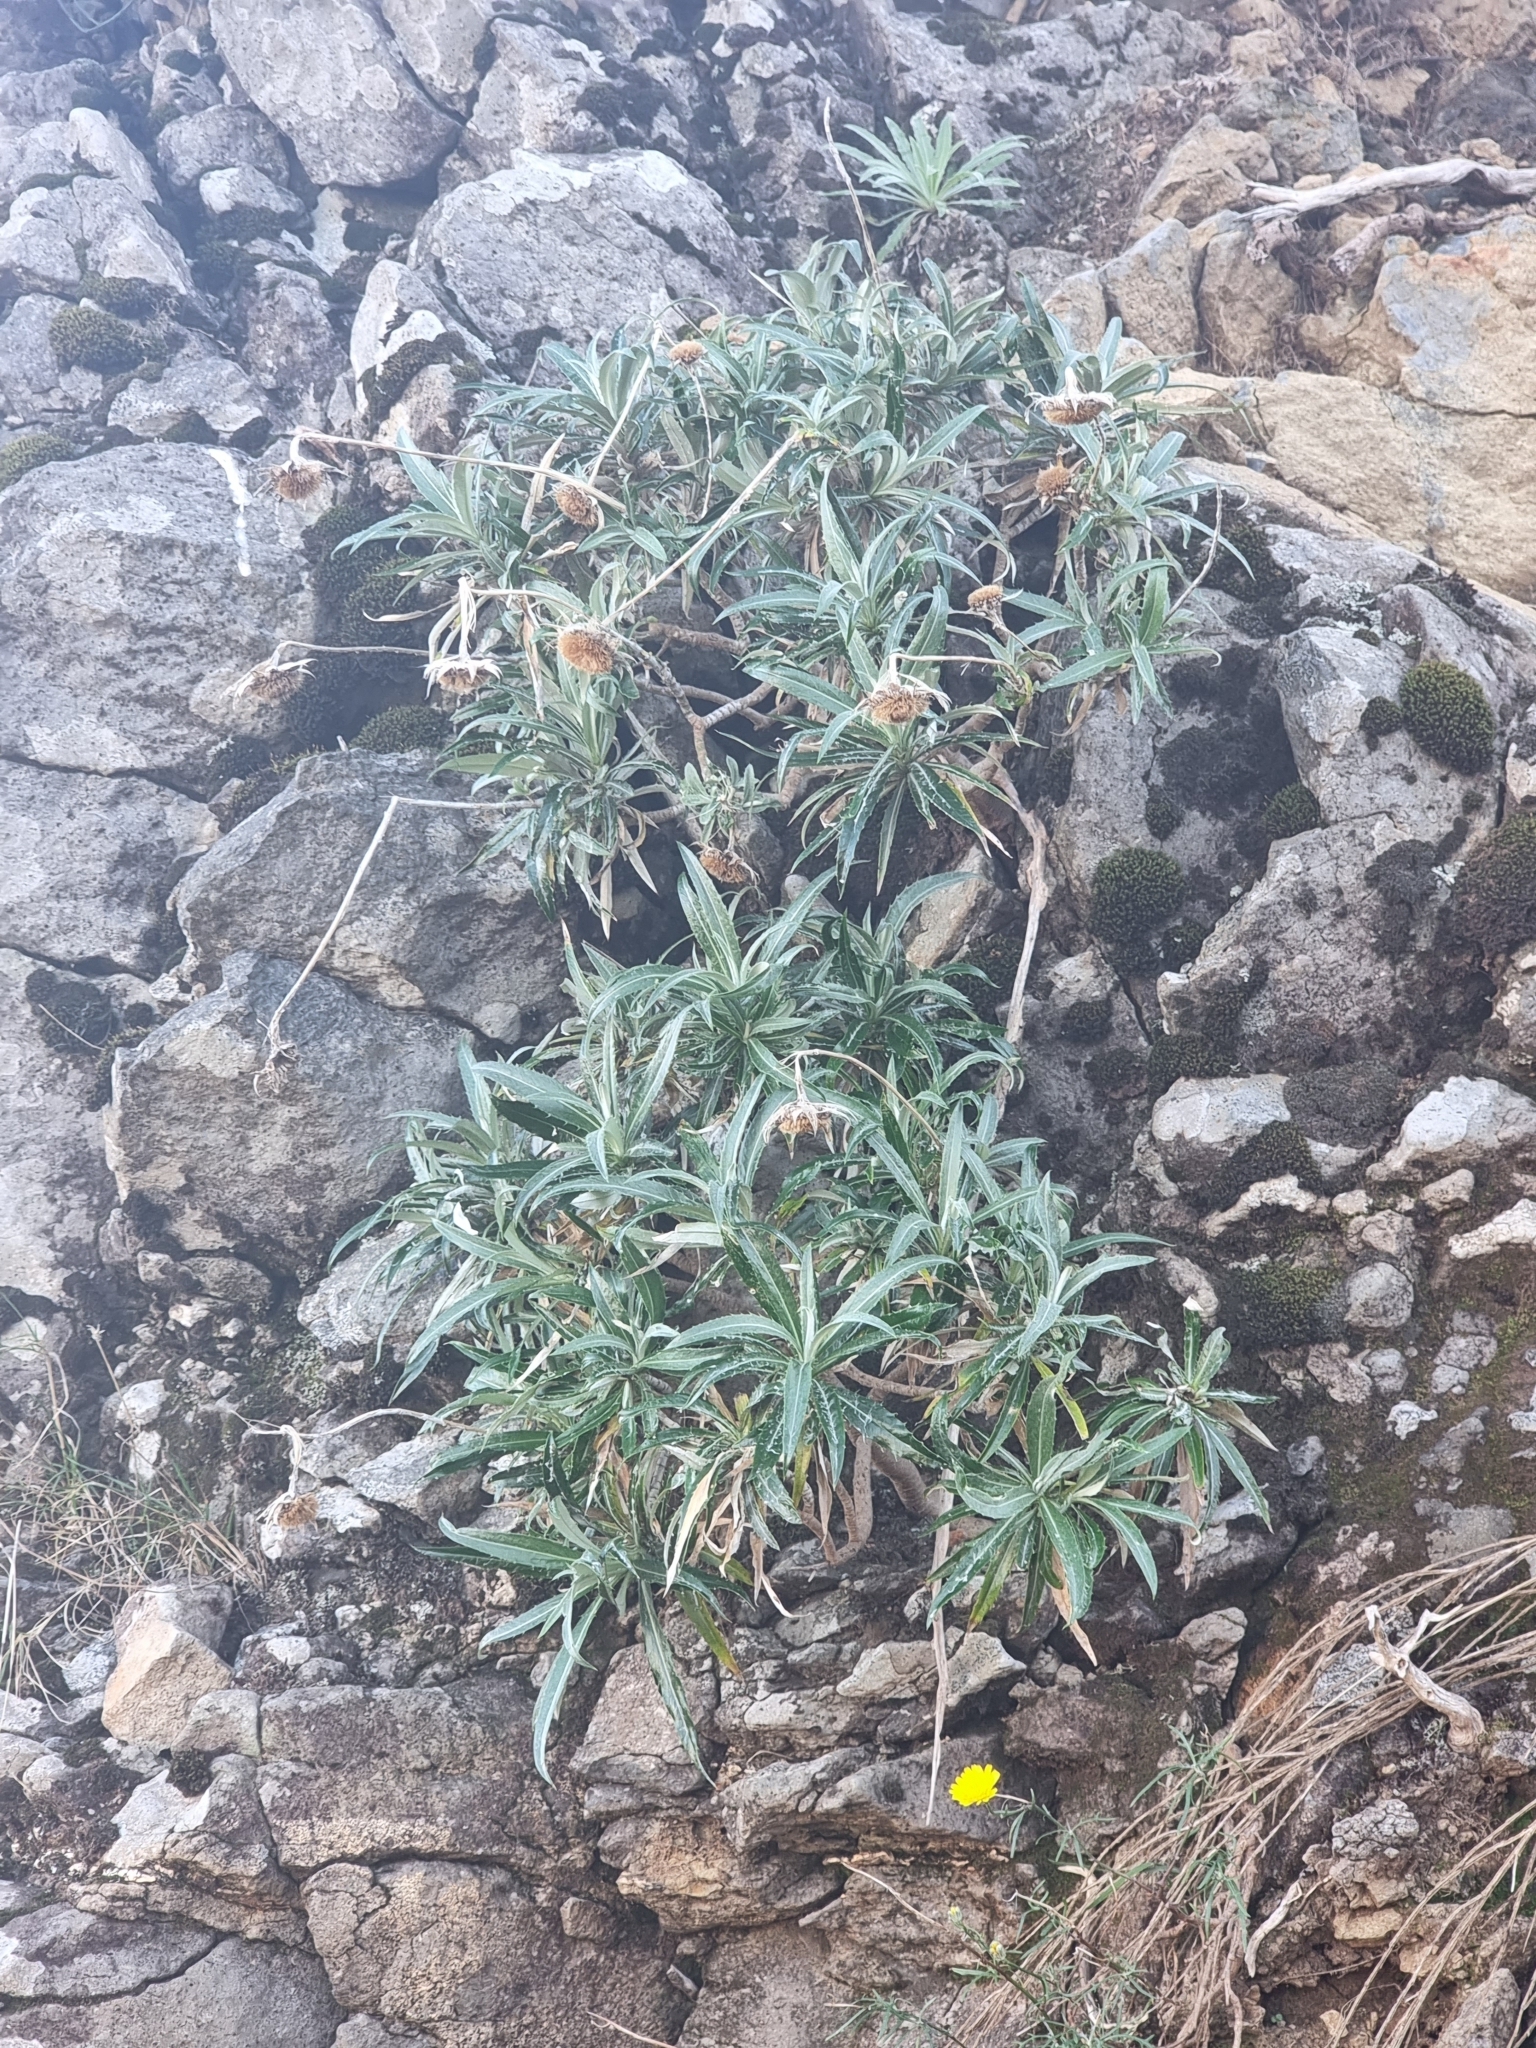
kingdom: Plantae
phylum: Tracheophyta
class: Magnoliopsida
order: Asterales
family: Asteraceae
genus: Carlina
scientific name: Carlina salicifolia
